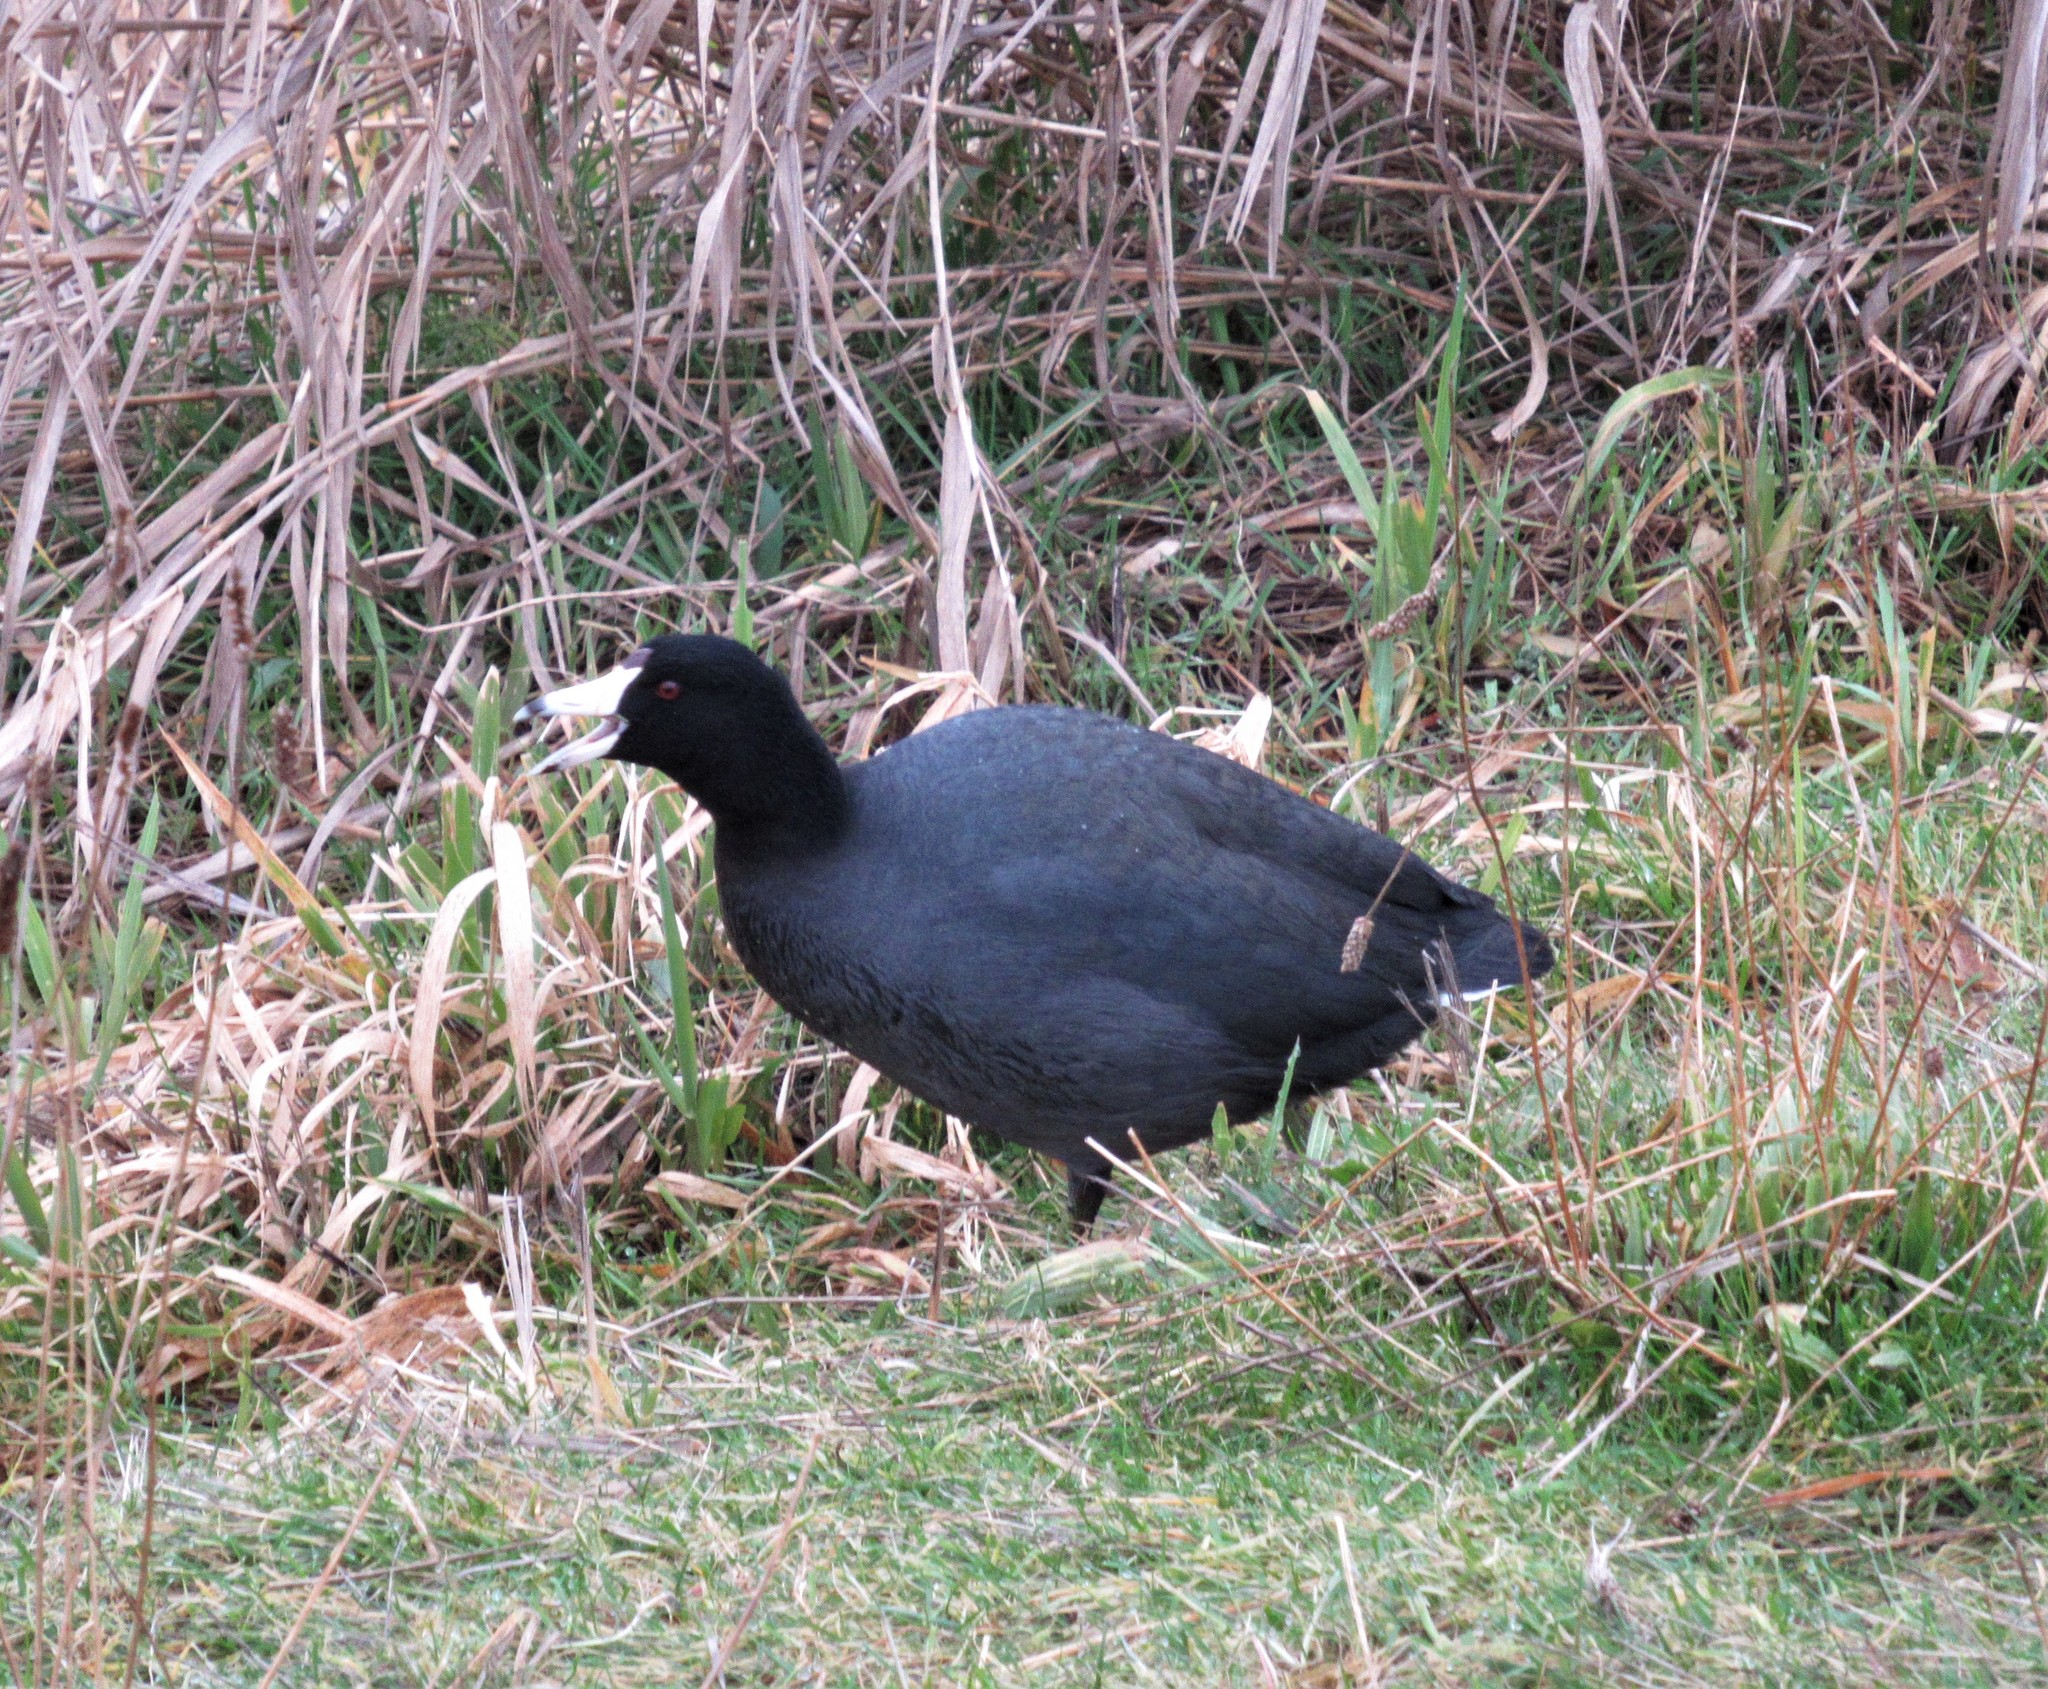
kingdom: Animalia
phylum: Chordata
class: Aves
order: Gruiformes
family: Rallidae
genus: Fulica
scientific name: Fulica americana
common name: American coot
